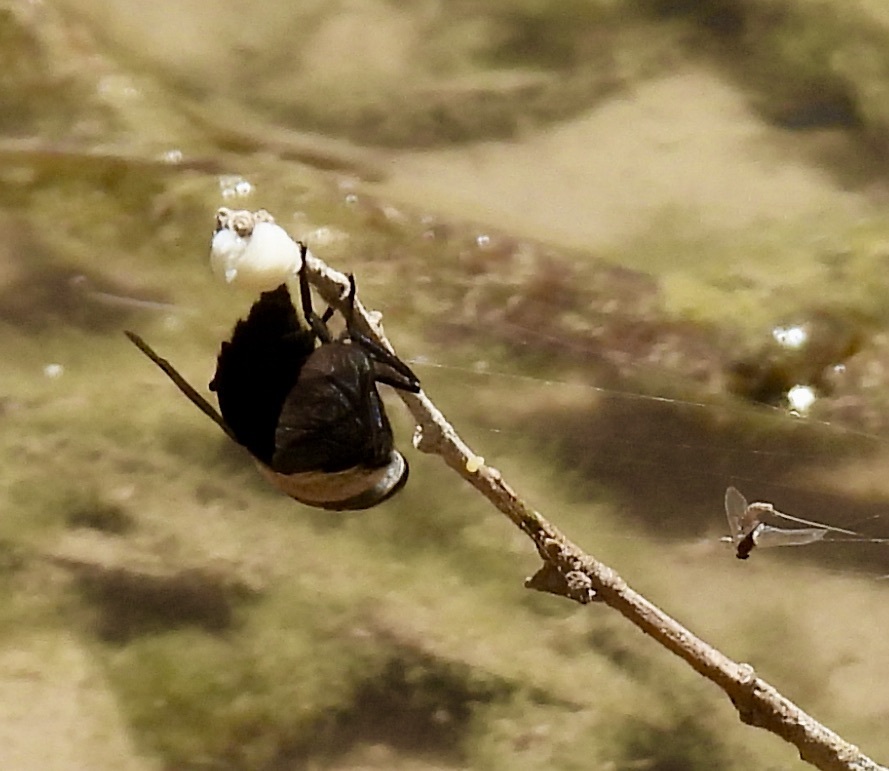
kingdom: Animalia
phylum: Arthropoda
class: Insecta
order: Diptera
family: Tabanidae
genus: Tabanus
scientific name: Tabanus punctifer
